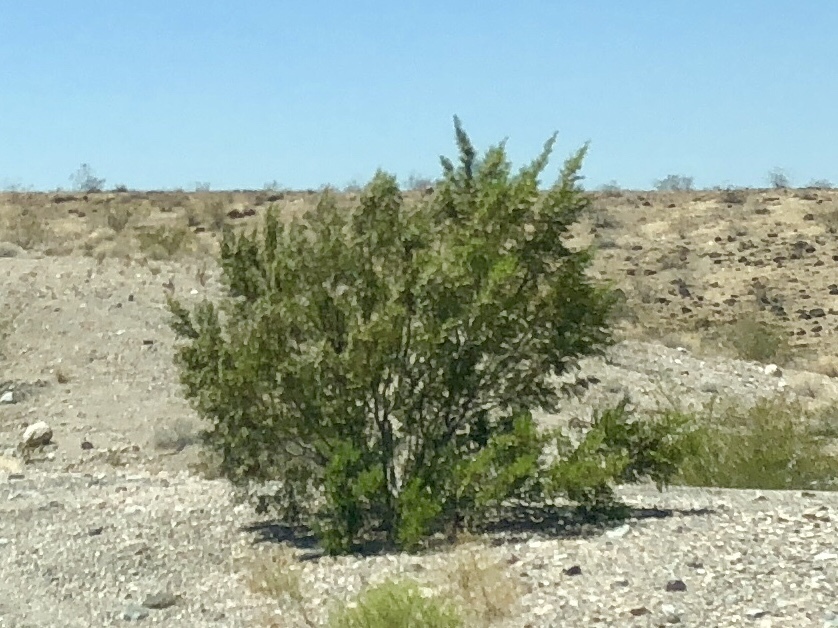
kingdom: Plantae
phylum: Tracheophyta
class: Magnoliopsida
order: Zygophyllales
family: Zygophyllaceae
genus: Larrea
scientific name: Larrea tridentata
